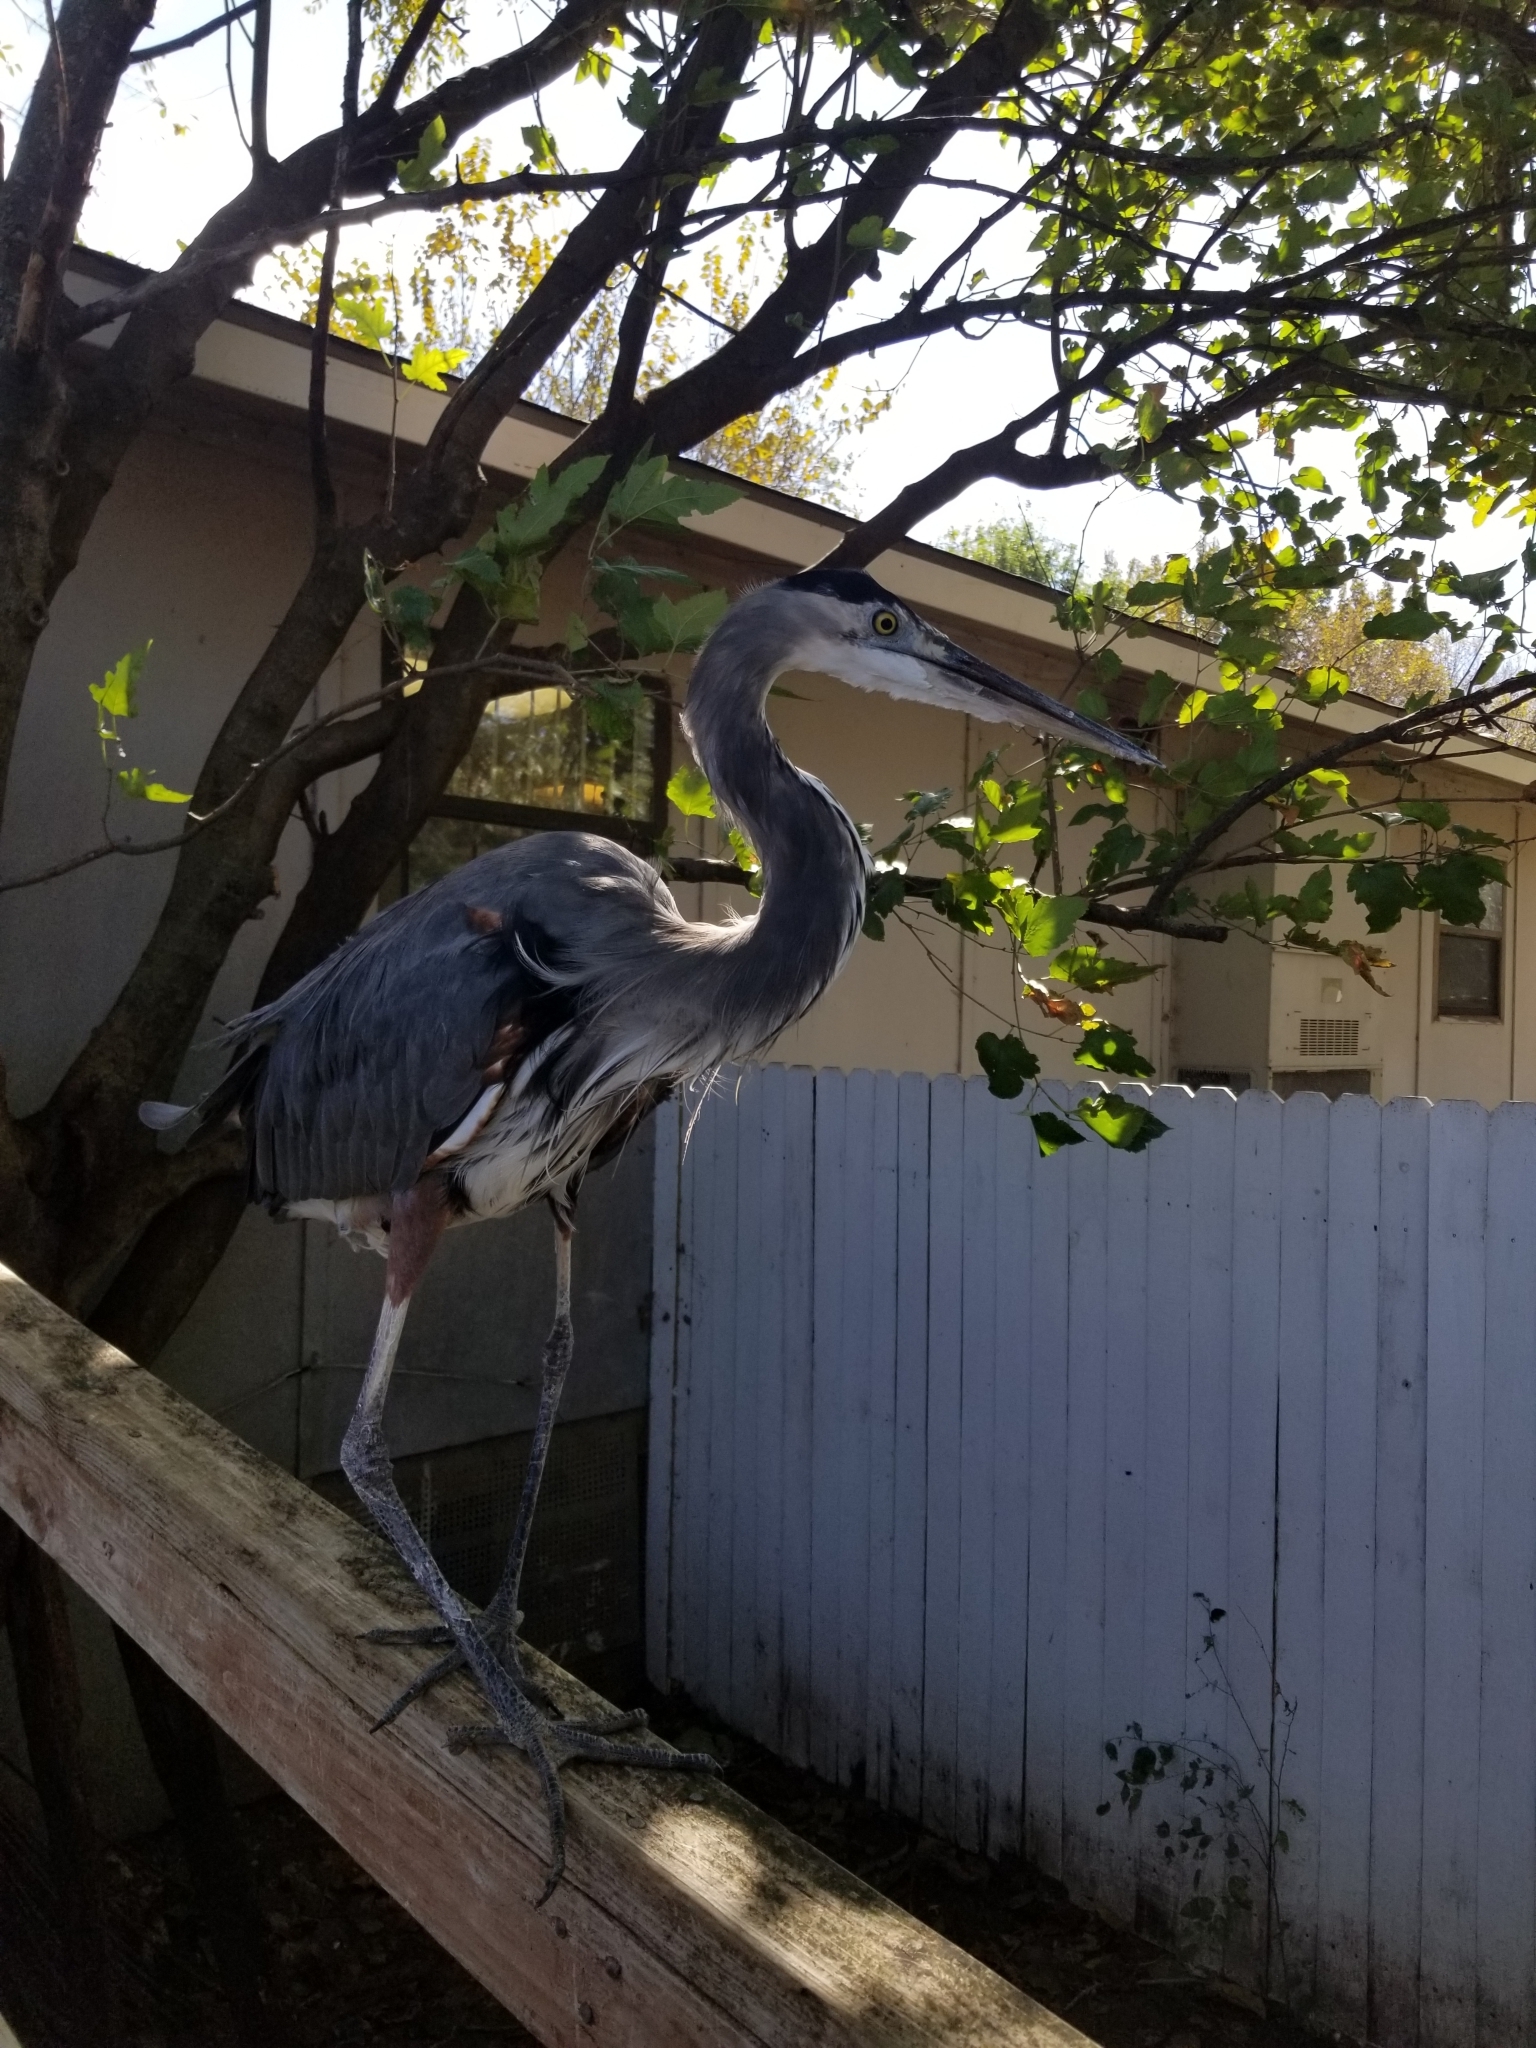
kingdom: Animalia
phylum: Chordata
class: Aves
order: Pelecaniformes
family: Ardeidae
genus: Ardea
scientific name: Ardea herodias
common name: Great blue heron
